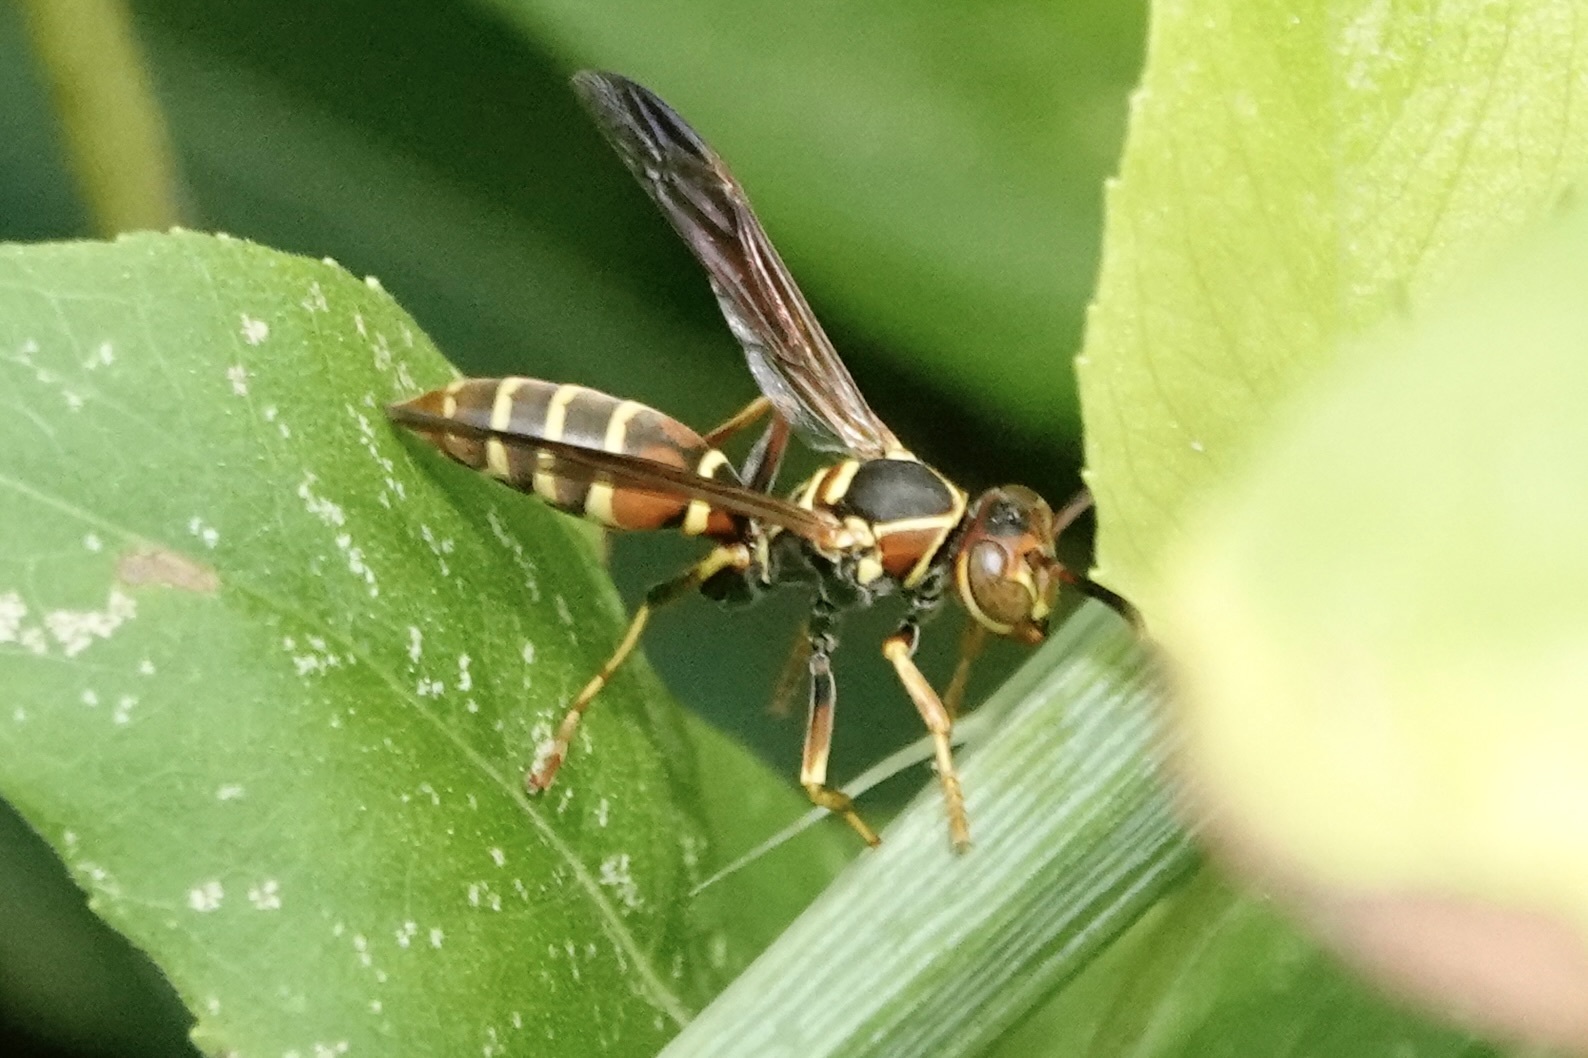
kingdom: Animalia
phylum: Arthropoda
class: Insecta
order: Hymenoptera
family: Eumenidae
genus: Polistes
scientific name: Polistes dorsalis
